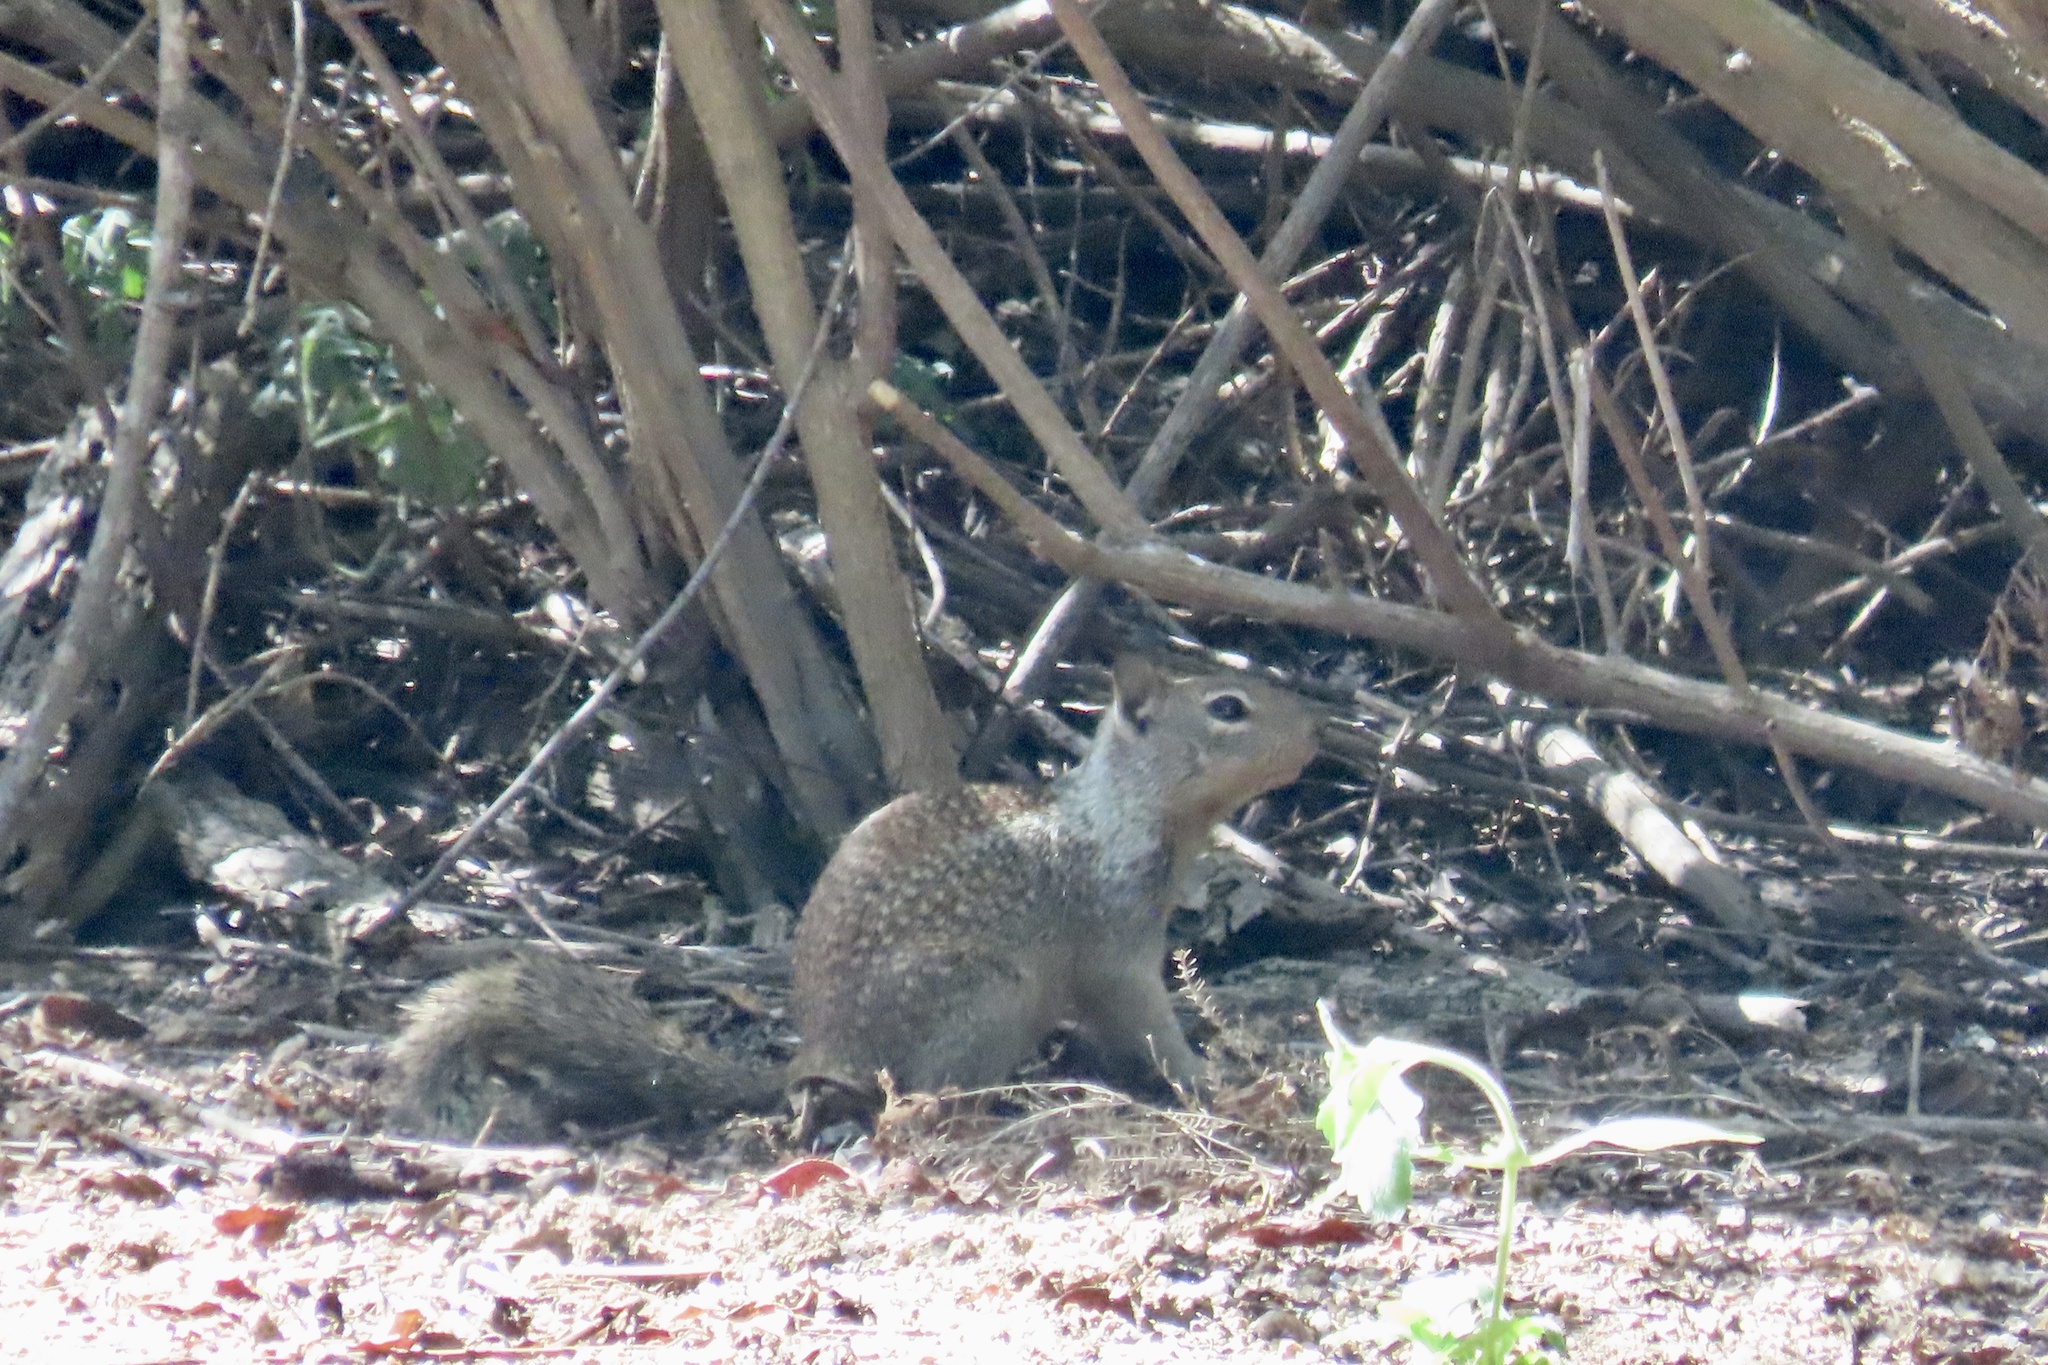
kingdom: Animalia
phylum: Chordata
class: Mammalia
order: Rodentia
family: Sciuridae
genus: Otospermophilus
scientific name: Otospermophilus beecheyi
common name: California ground squirrel
